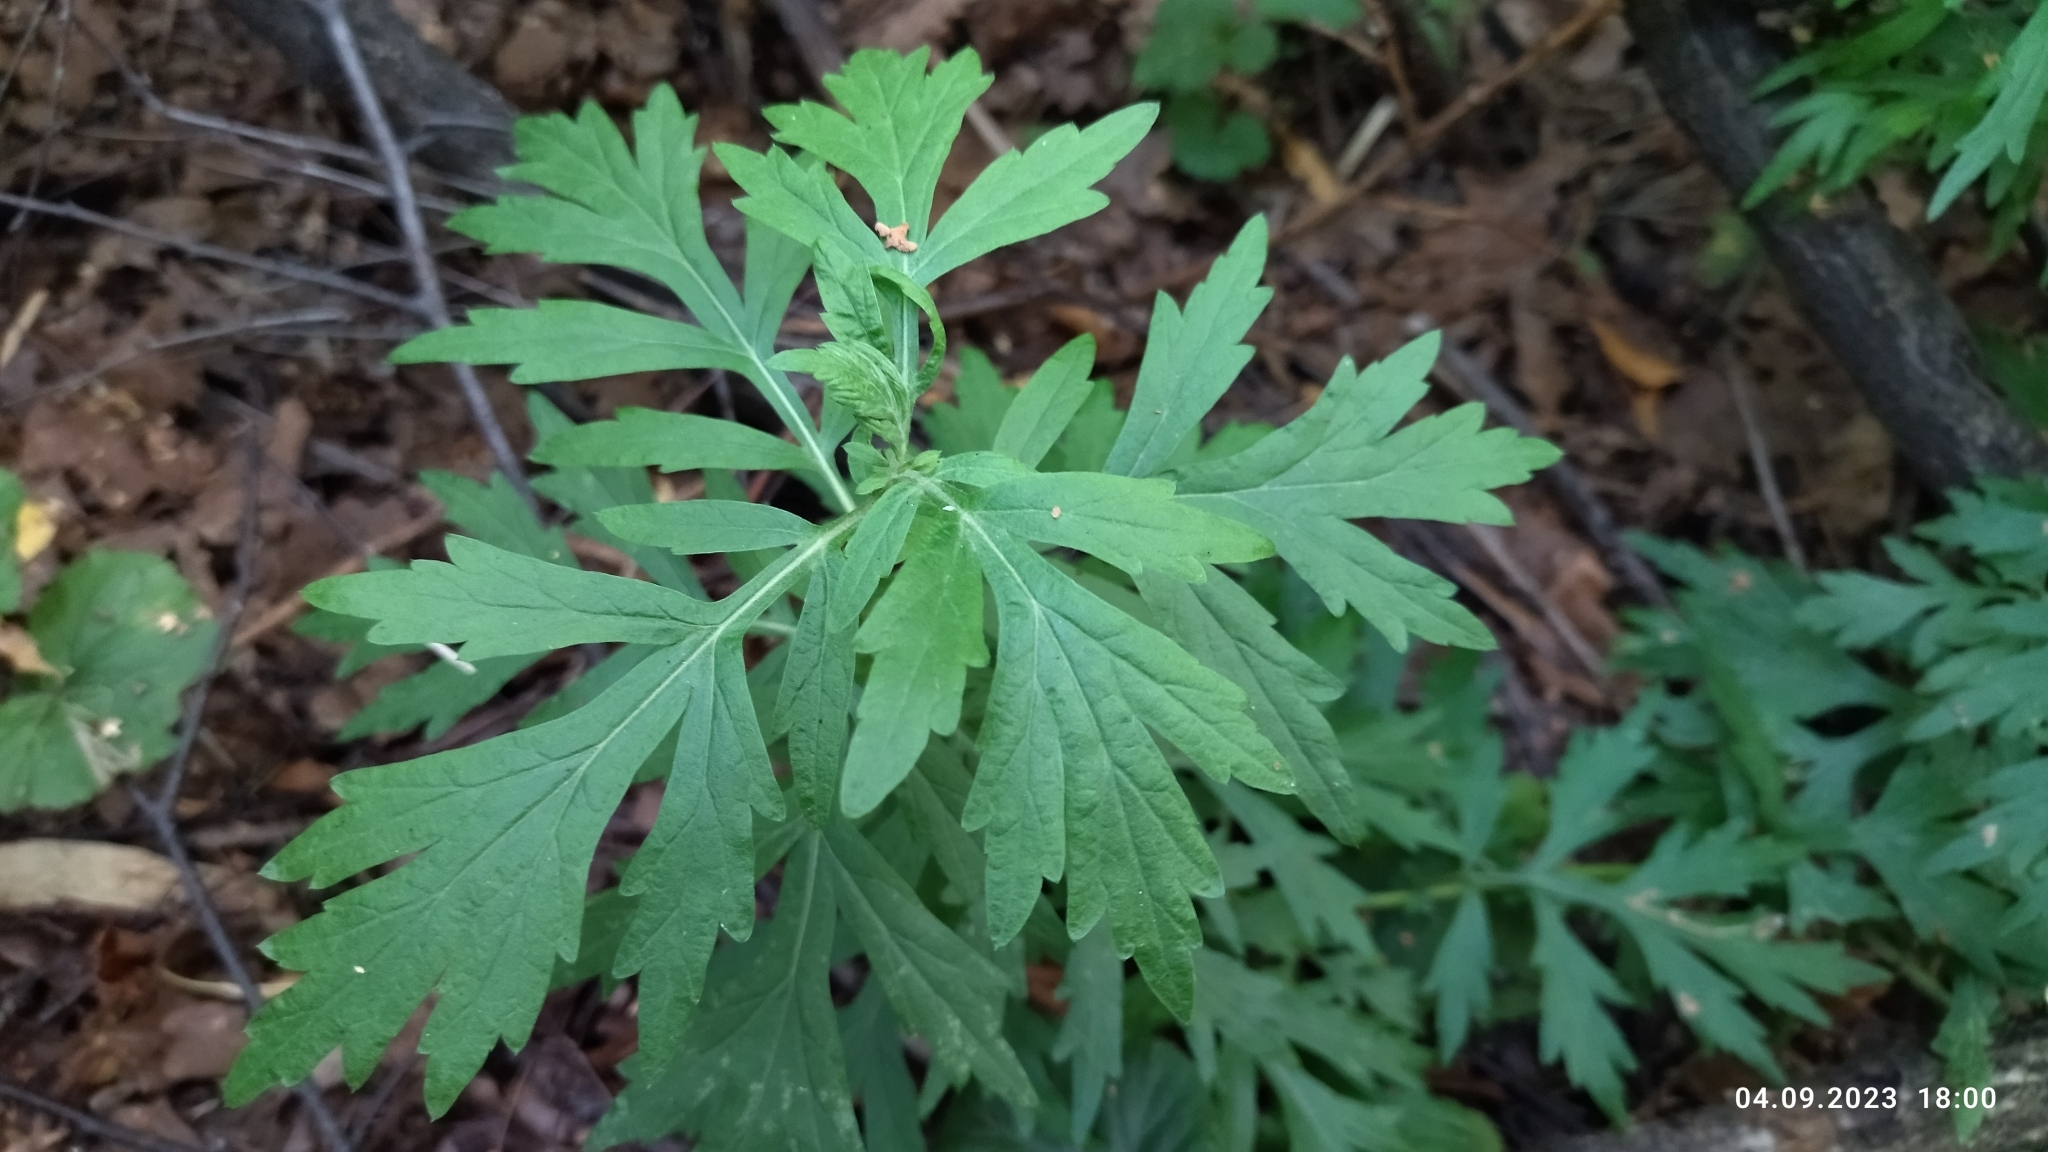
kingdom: Plantae
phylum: Tracheophyta
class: Magnoliopsida
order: Asterales
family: Asteraceae
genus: Artemisia
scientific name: Artemisia vulgaris
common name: Mugwort
